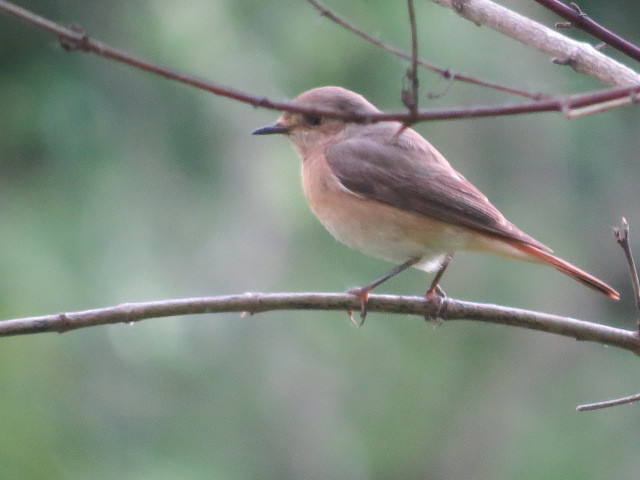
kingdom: Animalia
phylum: Chordata
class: Aves
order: Passeriformes
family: Muscicapidae
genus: Phoenicurus
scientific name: Phoenicurus phoenicurus
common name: Common redstart
